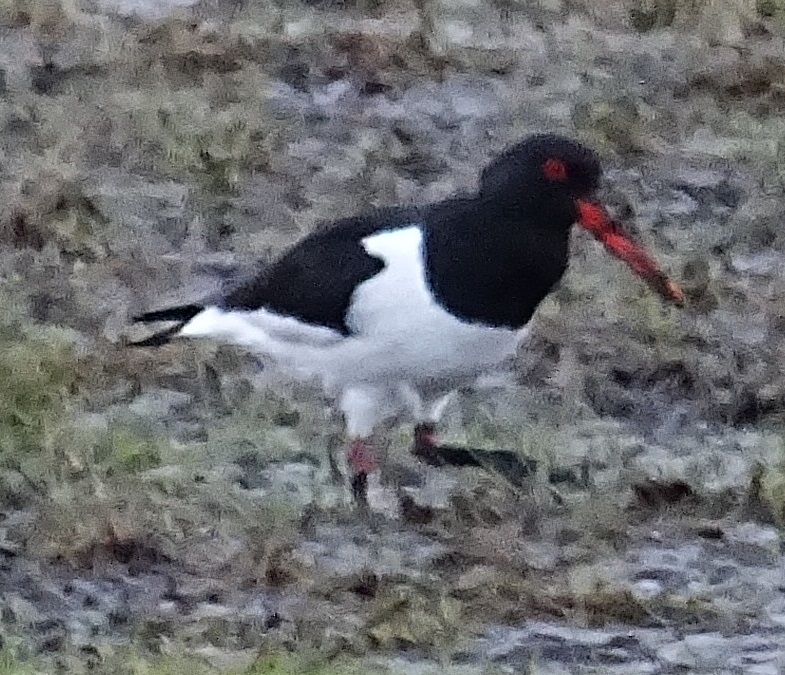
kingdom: Animalia
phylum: Chordata
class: Aves
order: Charadriiformes
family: Haematopodidae
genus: Haematopus
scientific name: Haematopus ostralegus
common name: Eurasian oystercatcher
